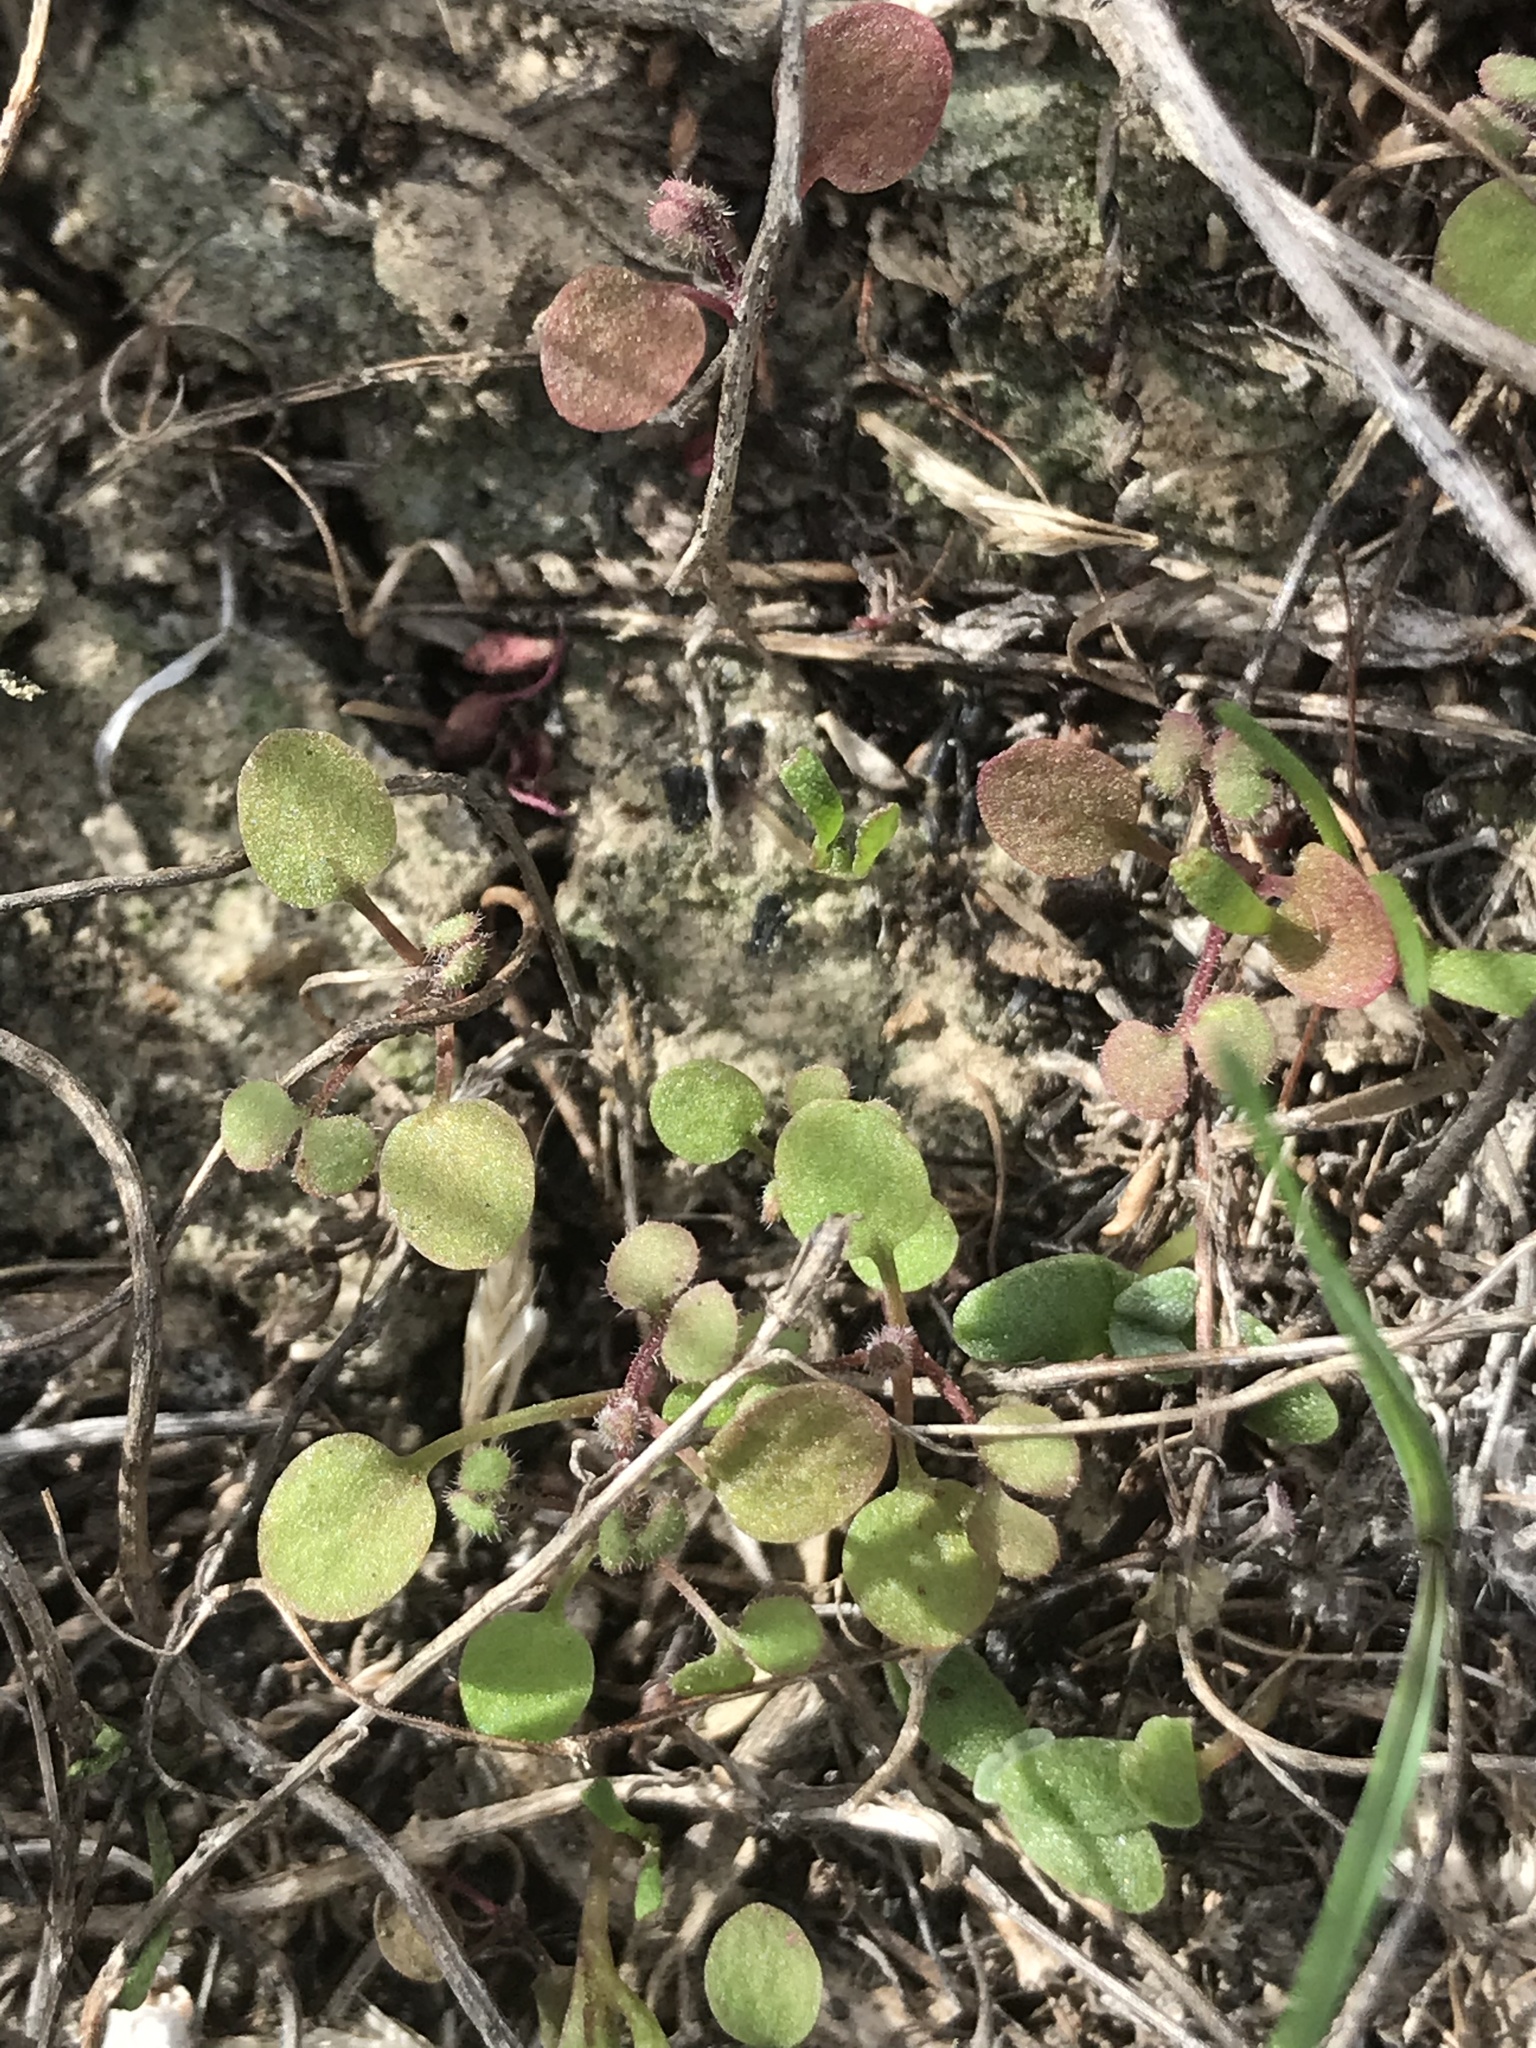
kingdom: Plantae
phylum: Tracheophyta
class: Magnoliopsida
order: Caryophyllales
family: Polygonaceae
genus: Pterostegia
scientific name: Pterostegia drymarioides
